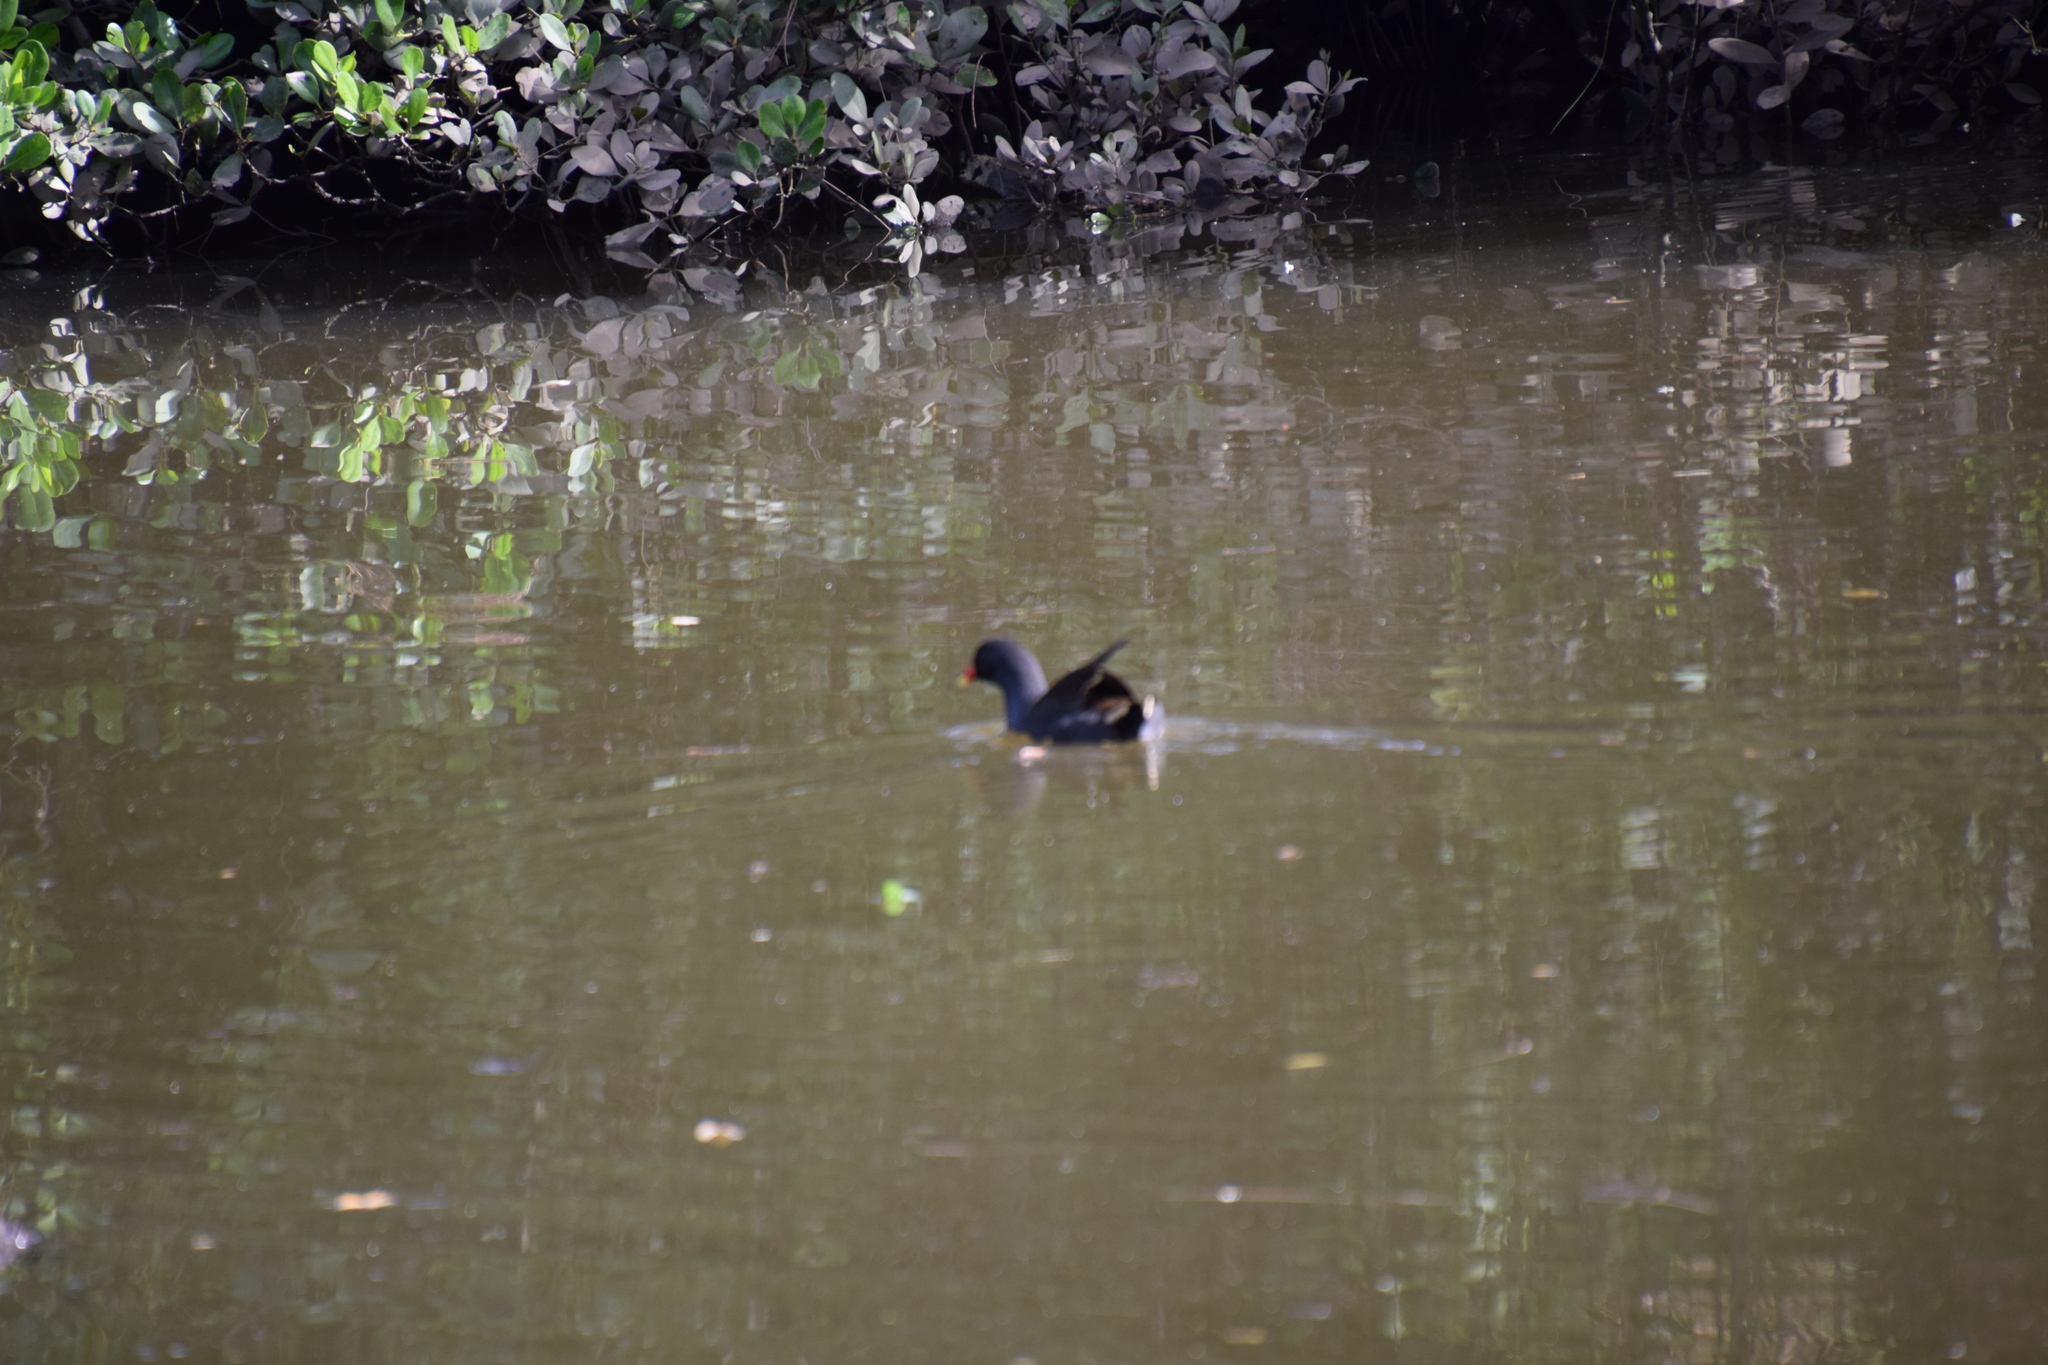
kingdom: Animalia
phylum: Chordata
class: Aves
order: Gruiformes
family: Rallidae
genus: Gallinula
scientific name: Gallinula tenebrosa
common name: Dusky moorhen
